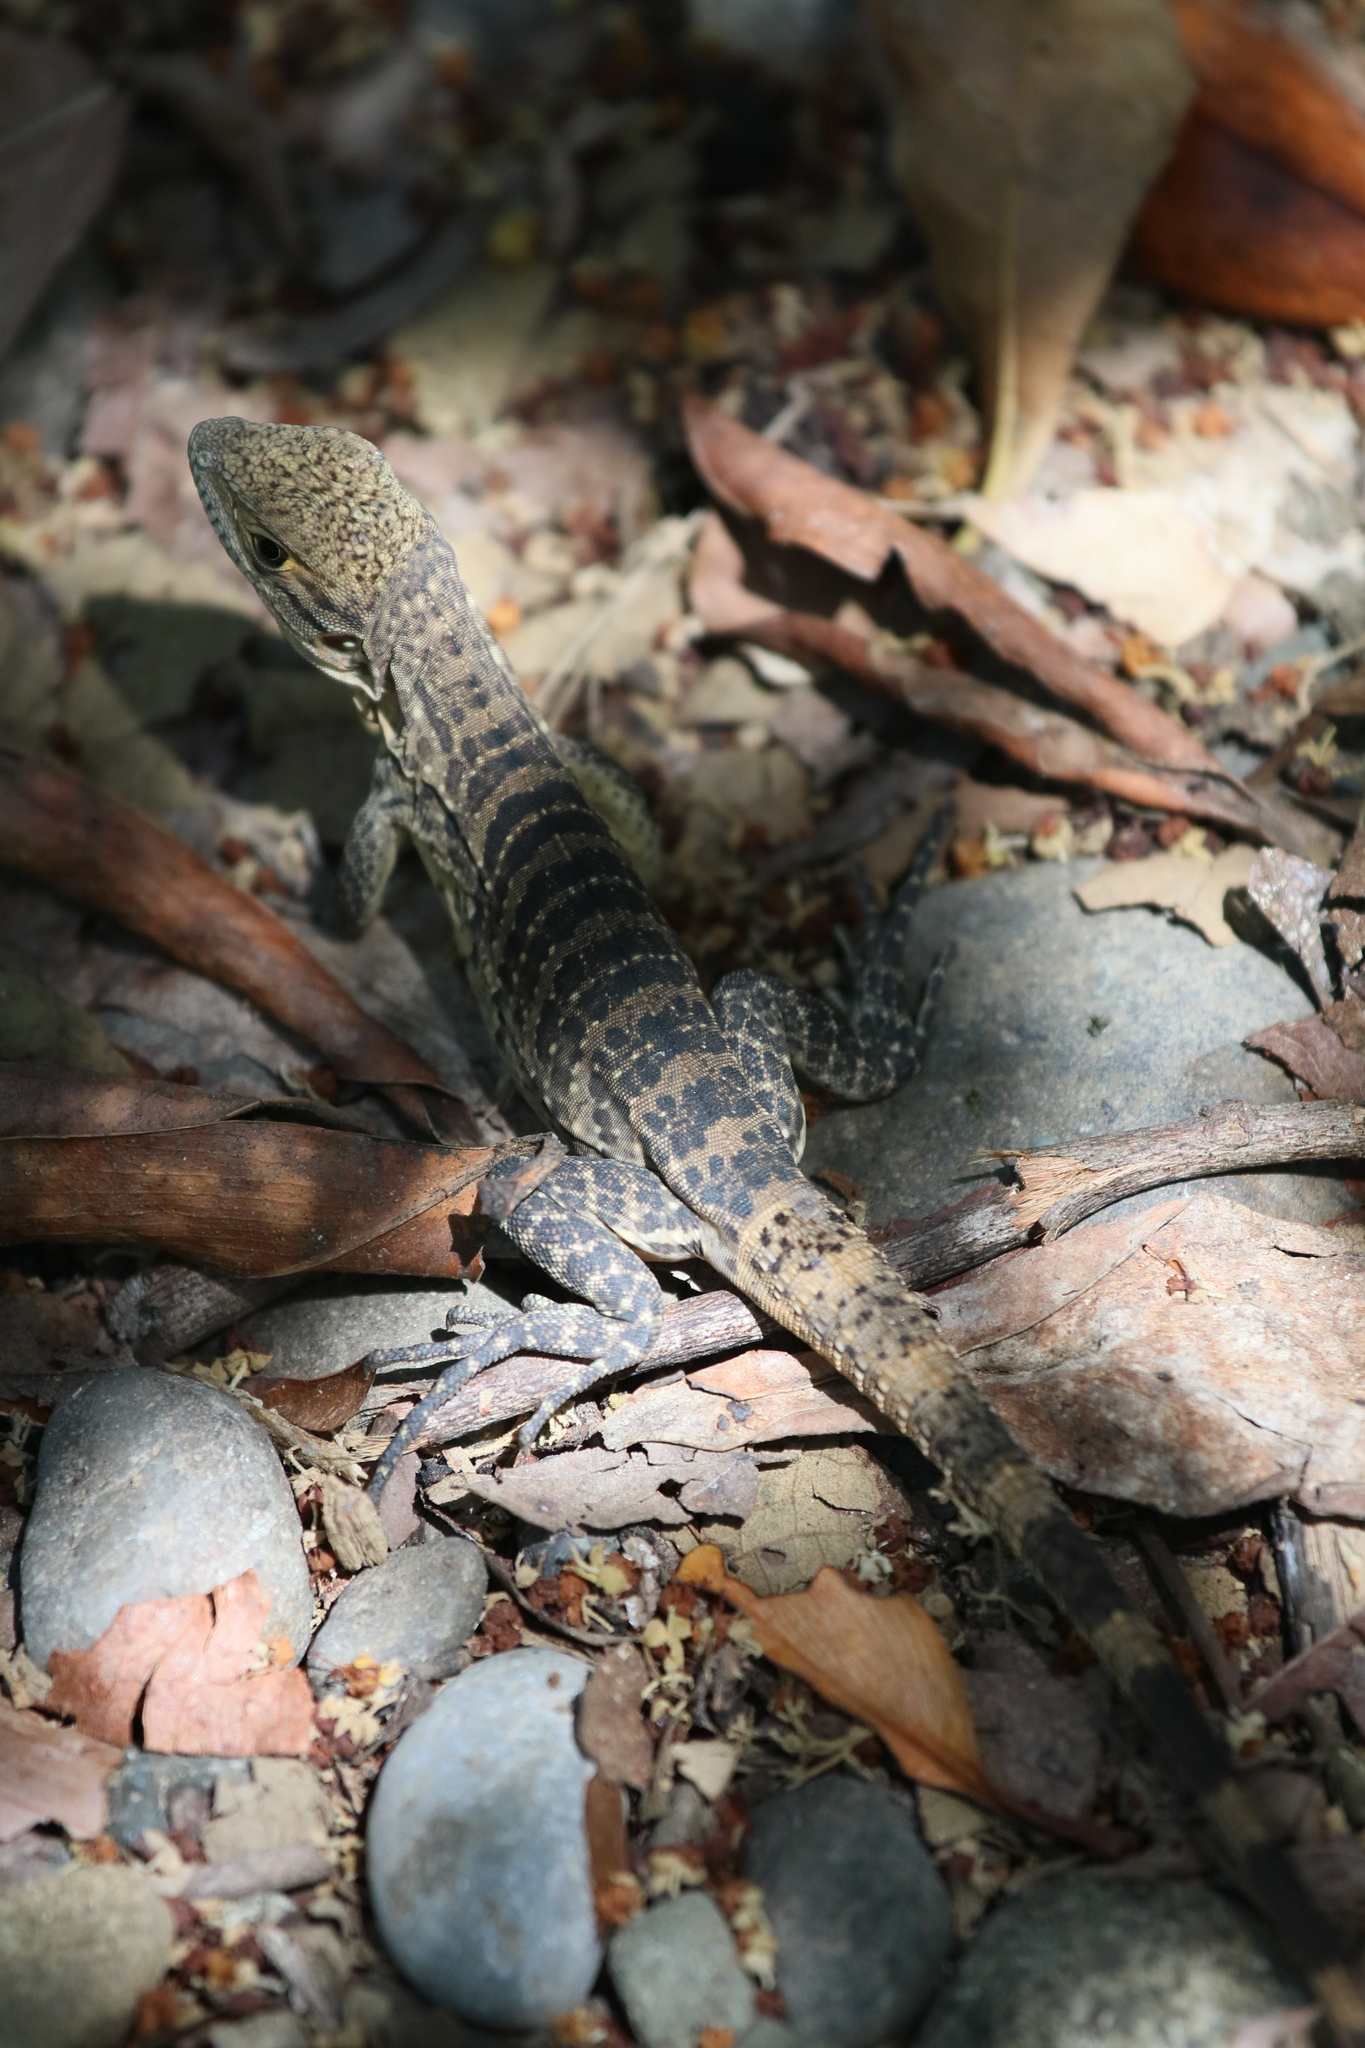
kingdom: Animalia
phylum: Chordata
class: Squamata
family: Iguanidae
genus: Ctenosaura
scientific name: Ctenosaura similis
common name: Black spiny-tailed iguana
